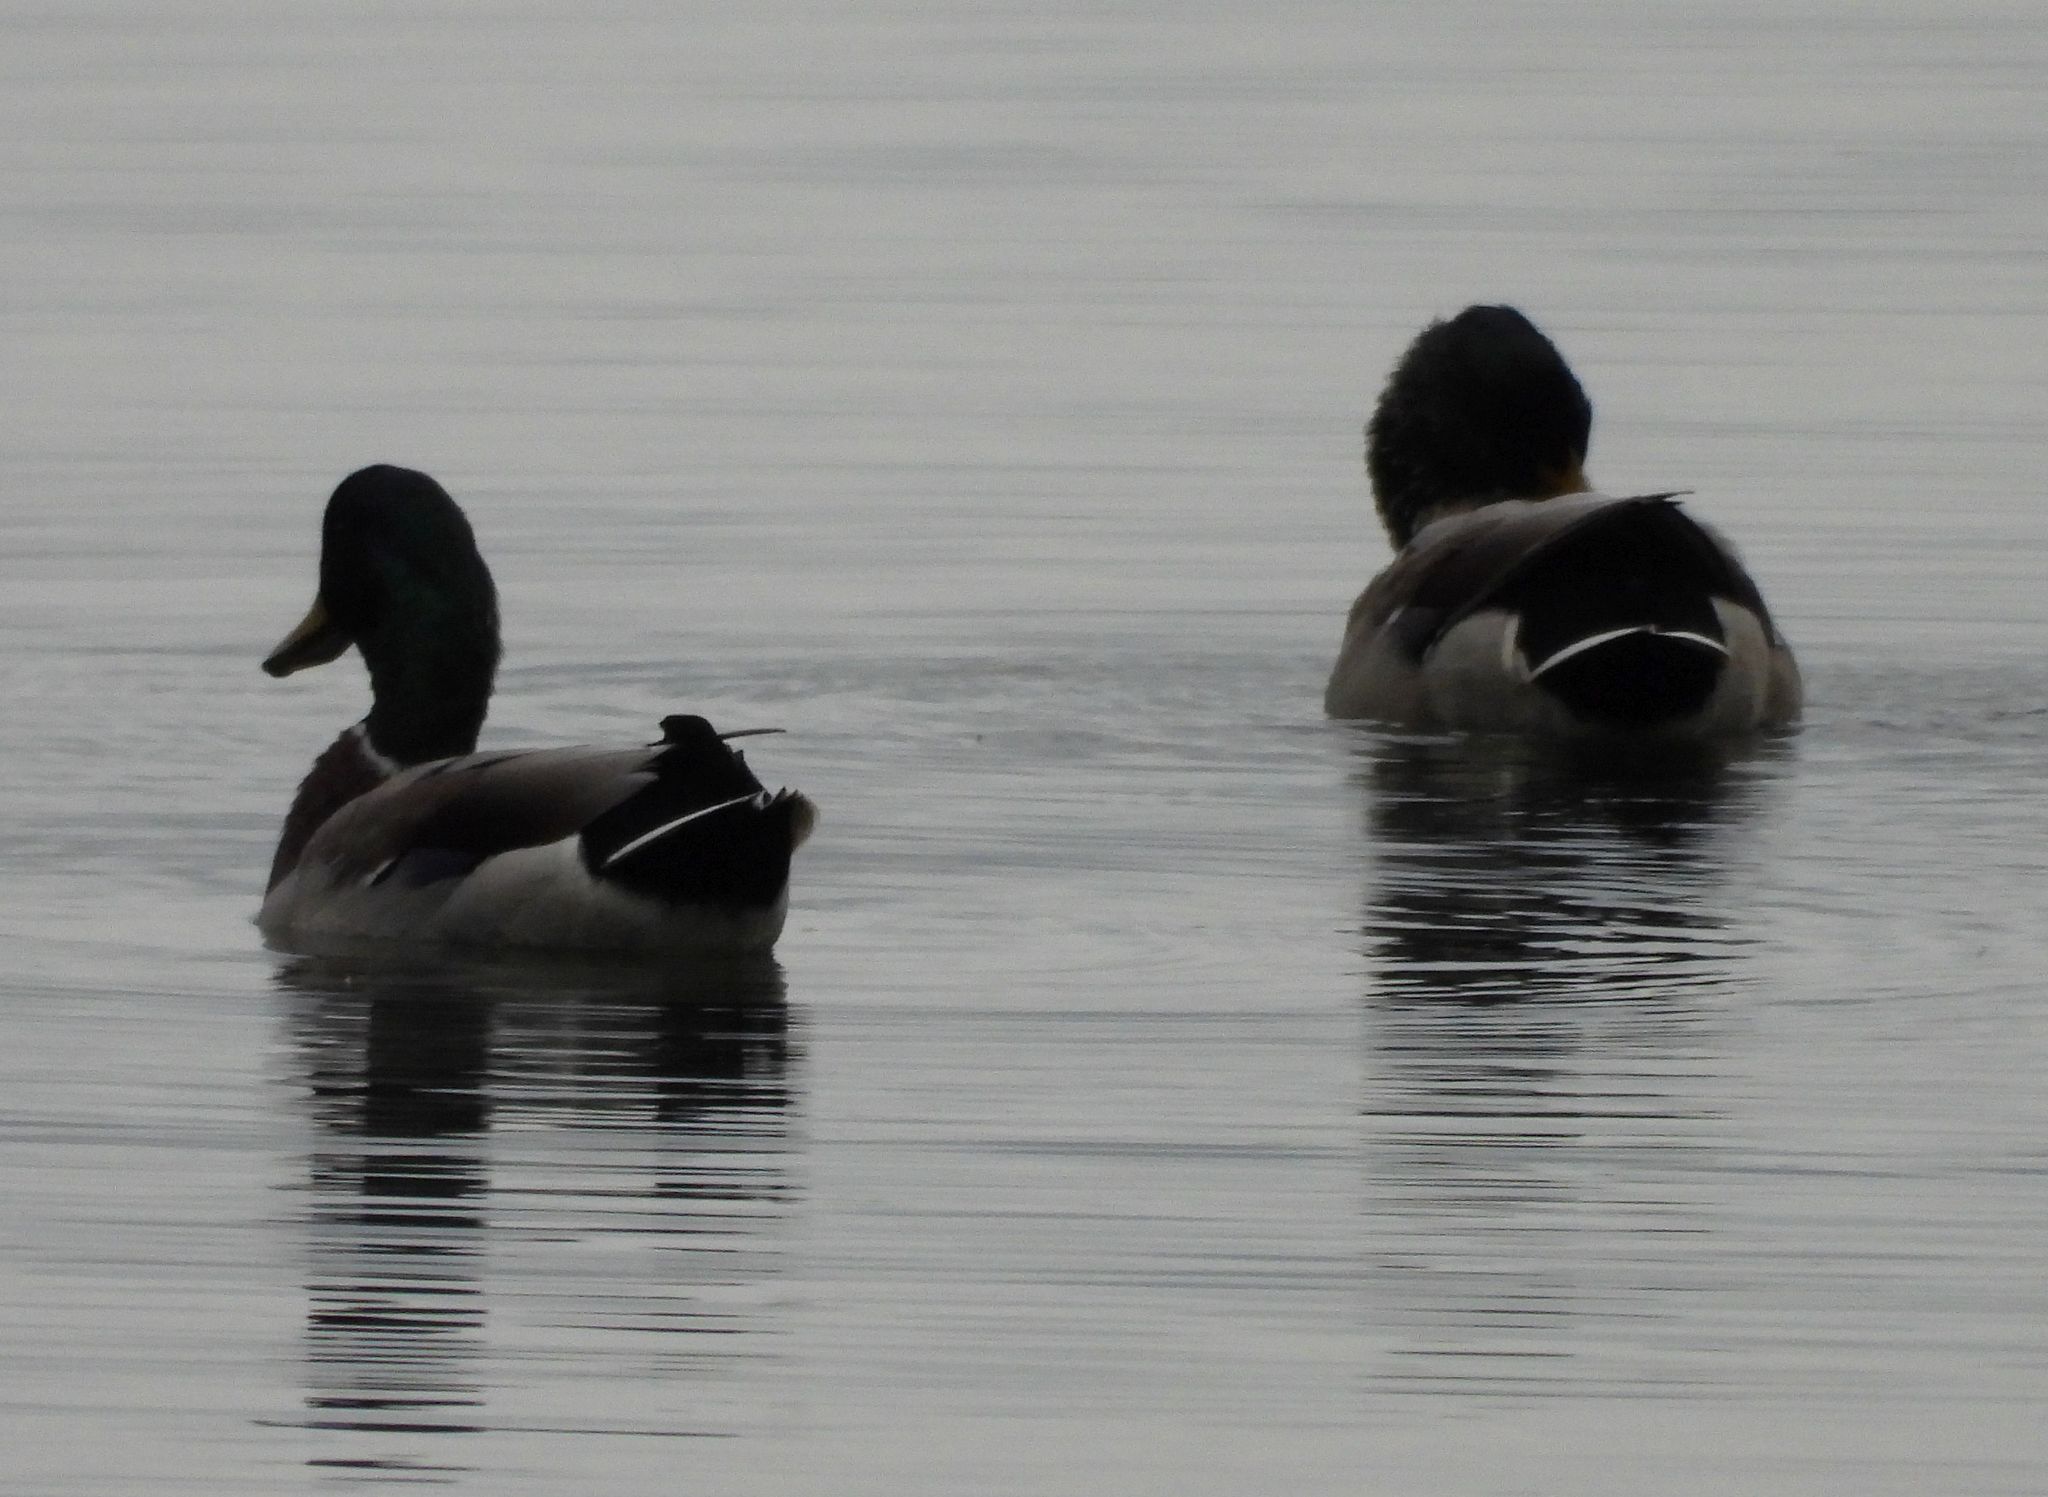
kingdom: Animalia
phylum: Chordata
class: Aves
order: Anseriformes
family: Anatidae
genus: Anas
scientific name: Anas platyrhynchos
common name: Mallard
